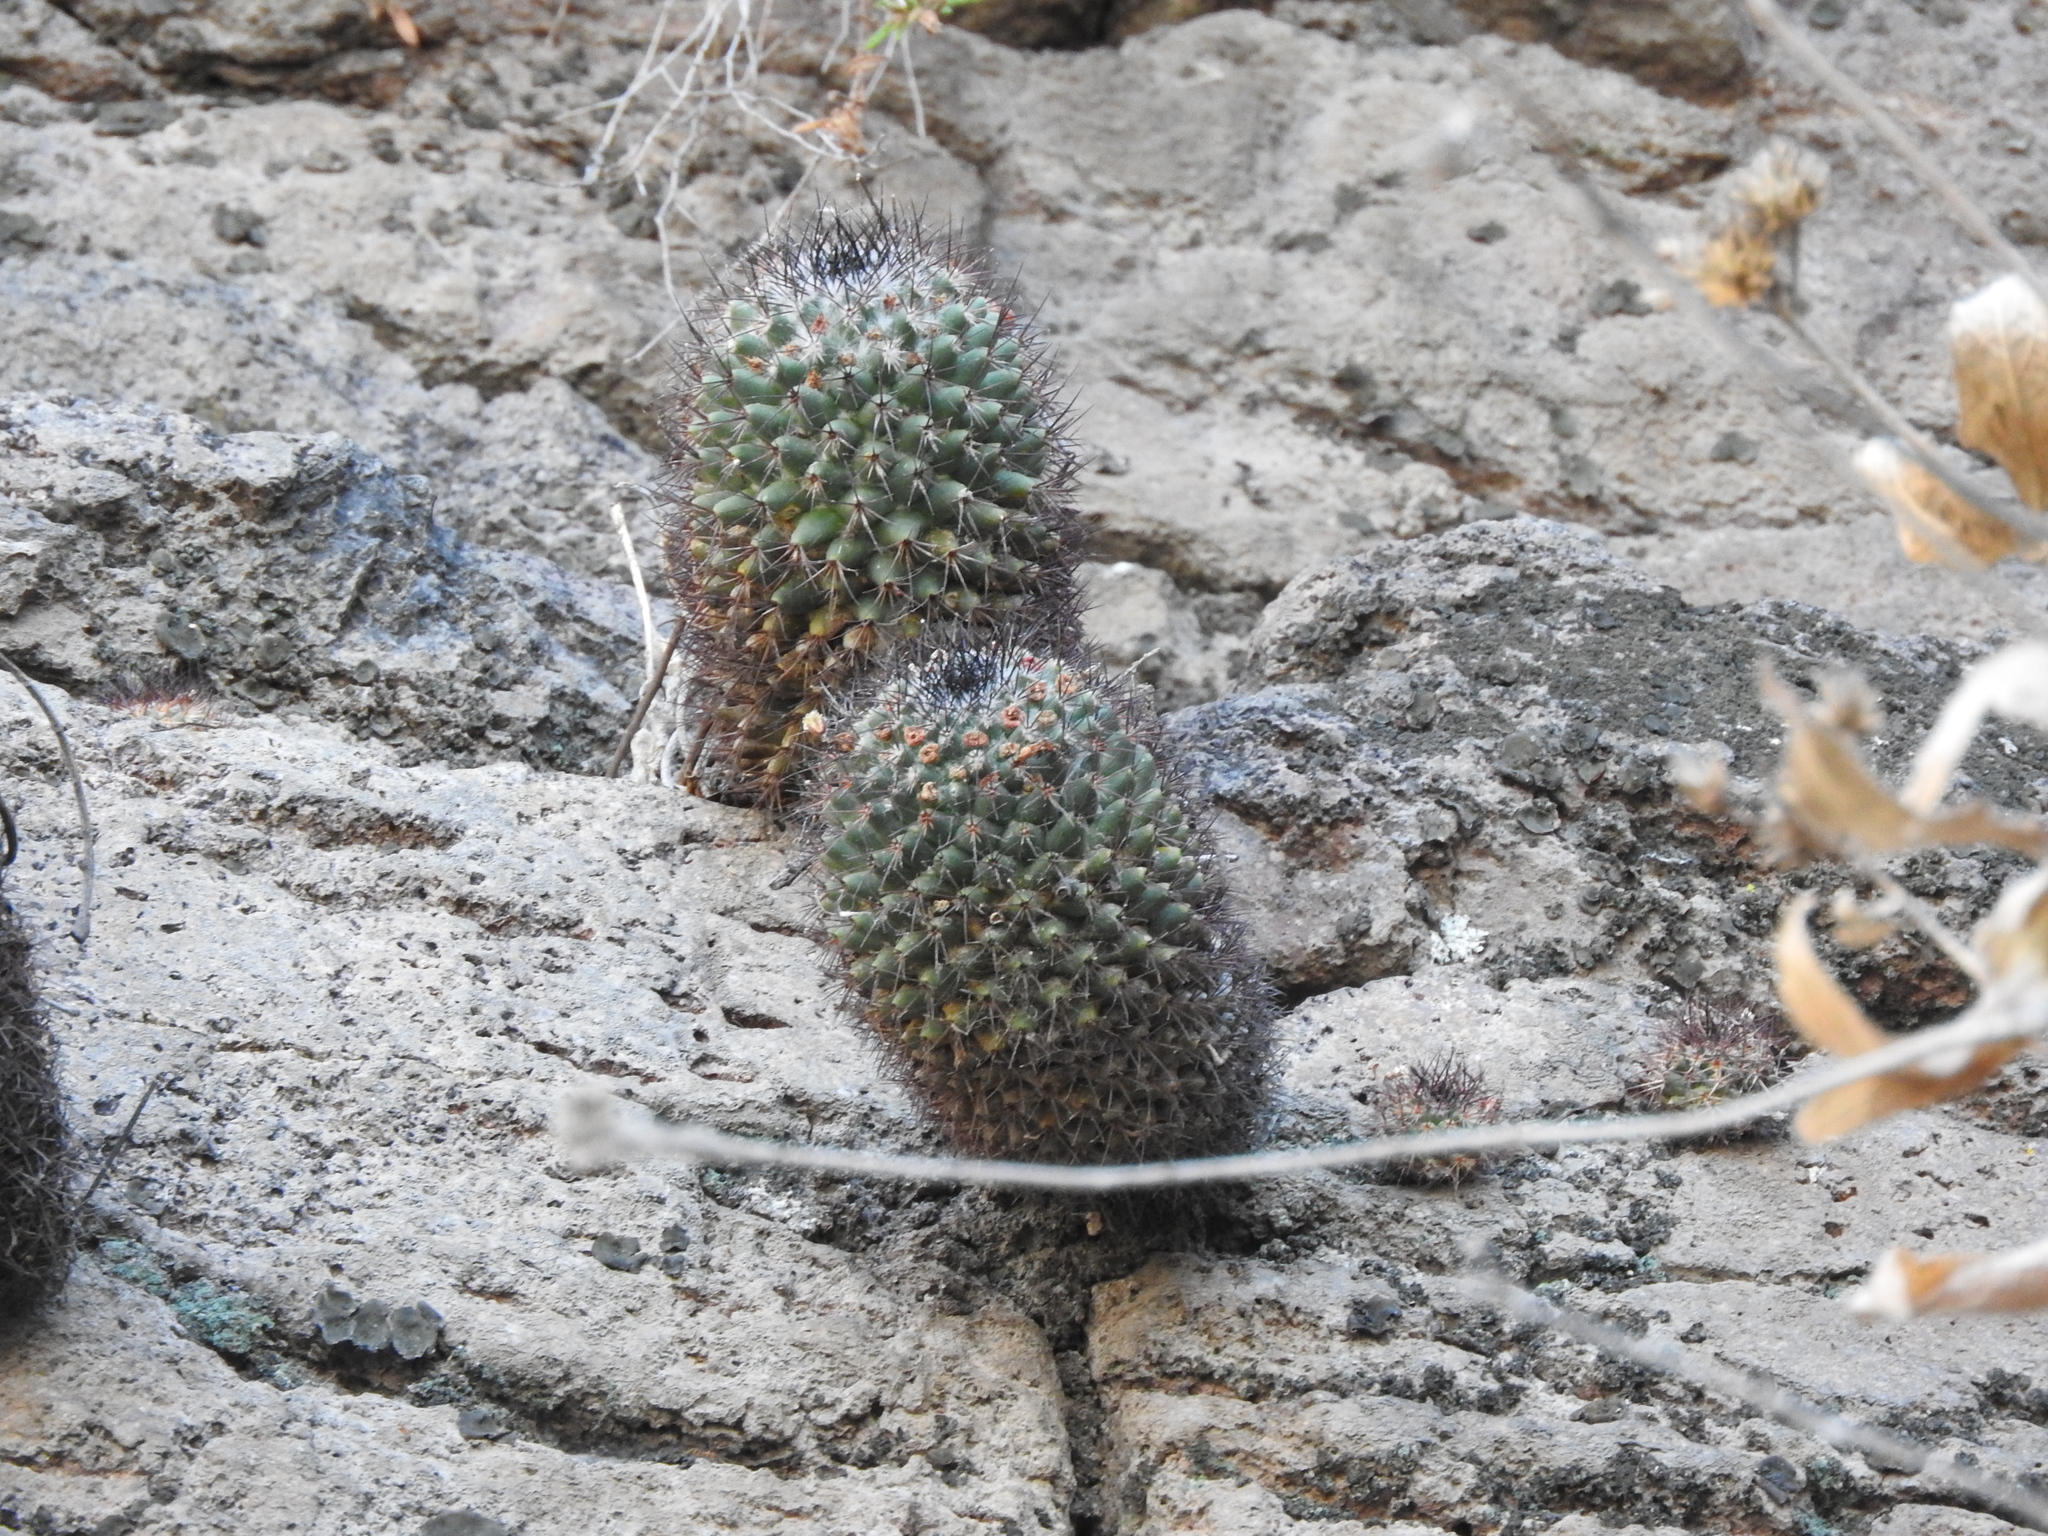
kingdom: Plantae
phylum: Tracheophyta
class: Magnoliopsida
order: Caryophyllales
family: Cactaceae
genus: Mammillaria
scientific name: Mammillaria polythele
